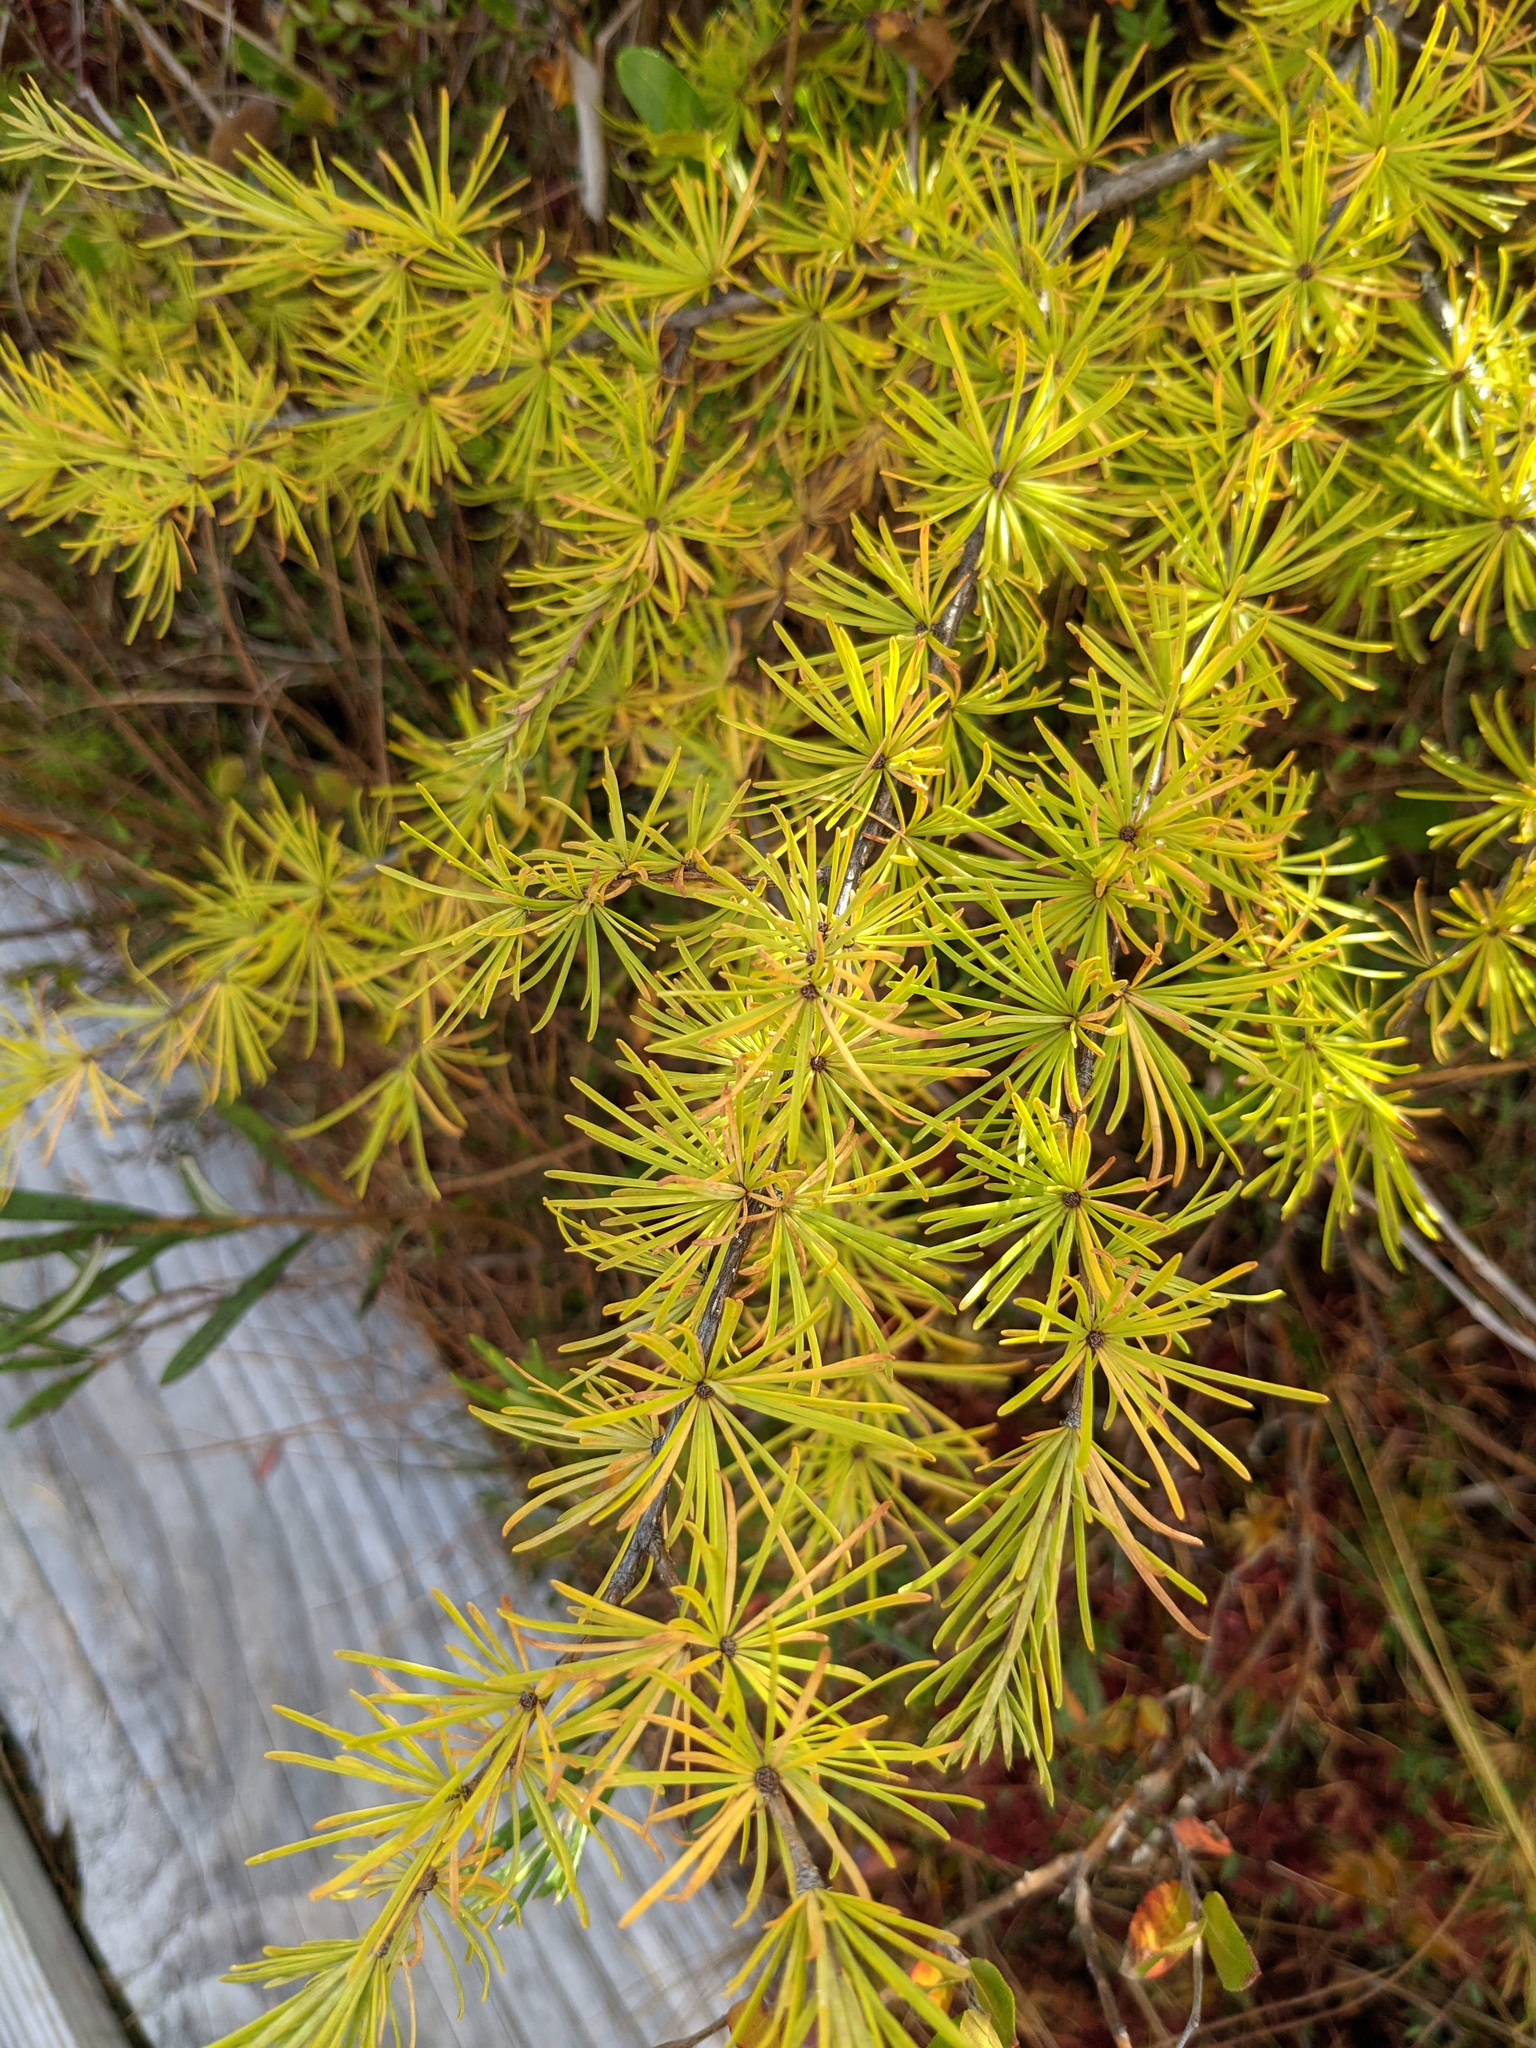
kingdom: Plantae
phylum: Tracheophyta
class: Pinopsida
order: Pinales
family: Pinaceae
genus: Larix
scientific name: Larix laricina
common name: American larch
